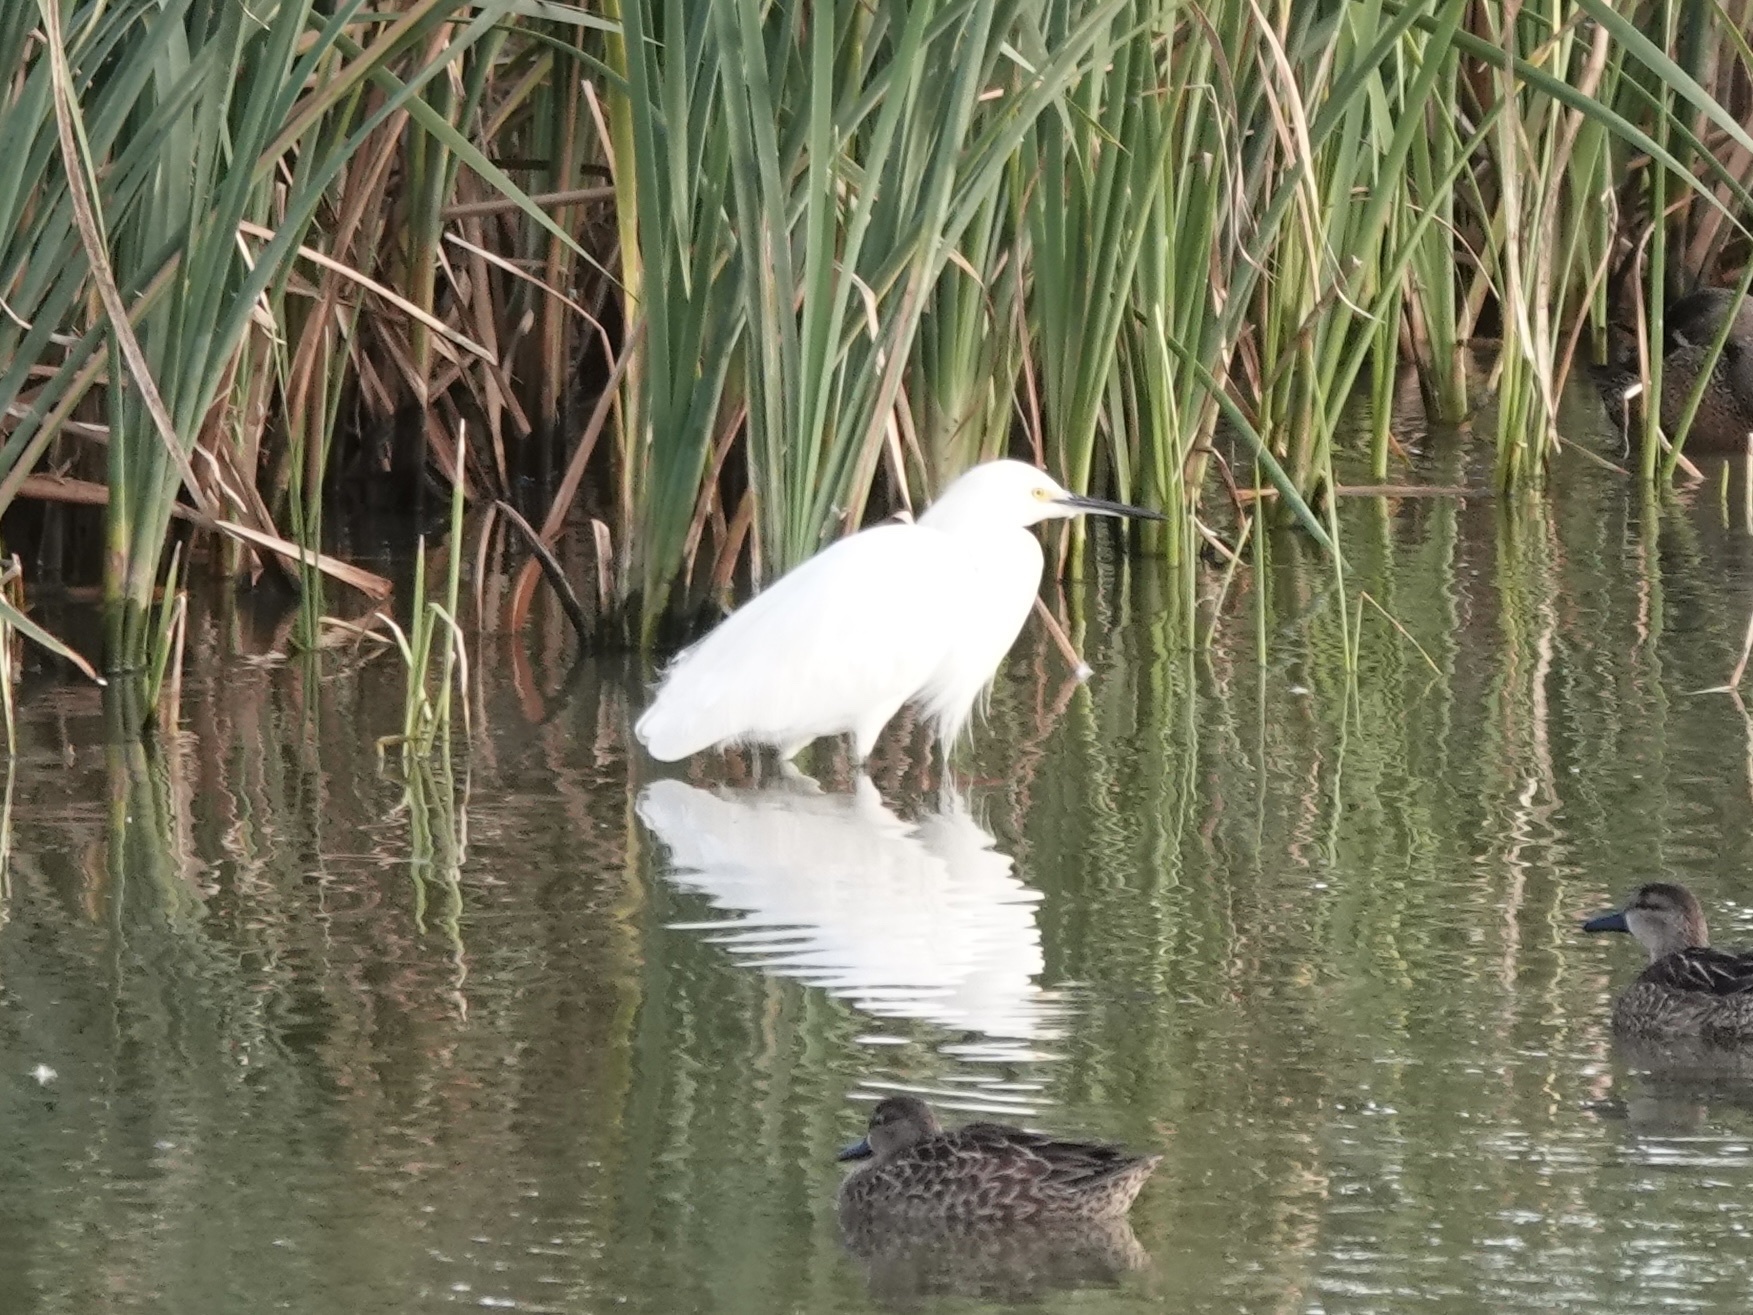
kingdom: Animalia
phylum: Chordata
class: Aves
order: Pelecaniformes
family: Ardeidae
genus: Egretta
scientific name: Egretta thula
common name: Snowy egret
